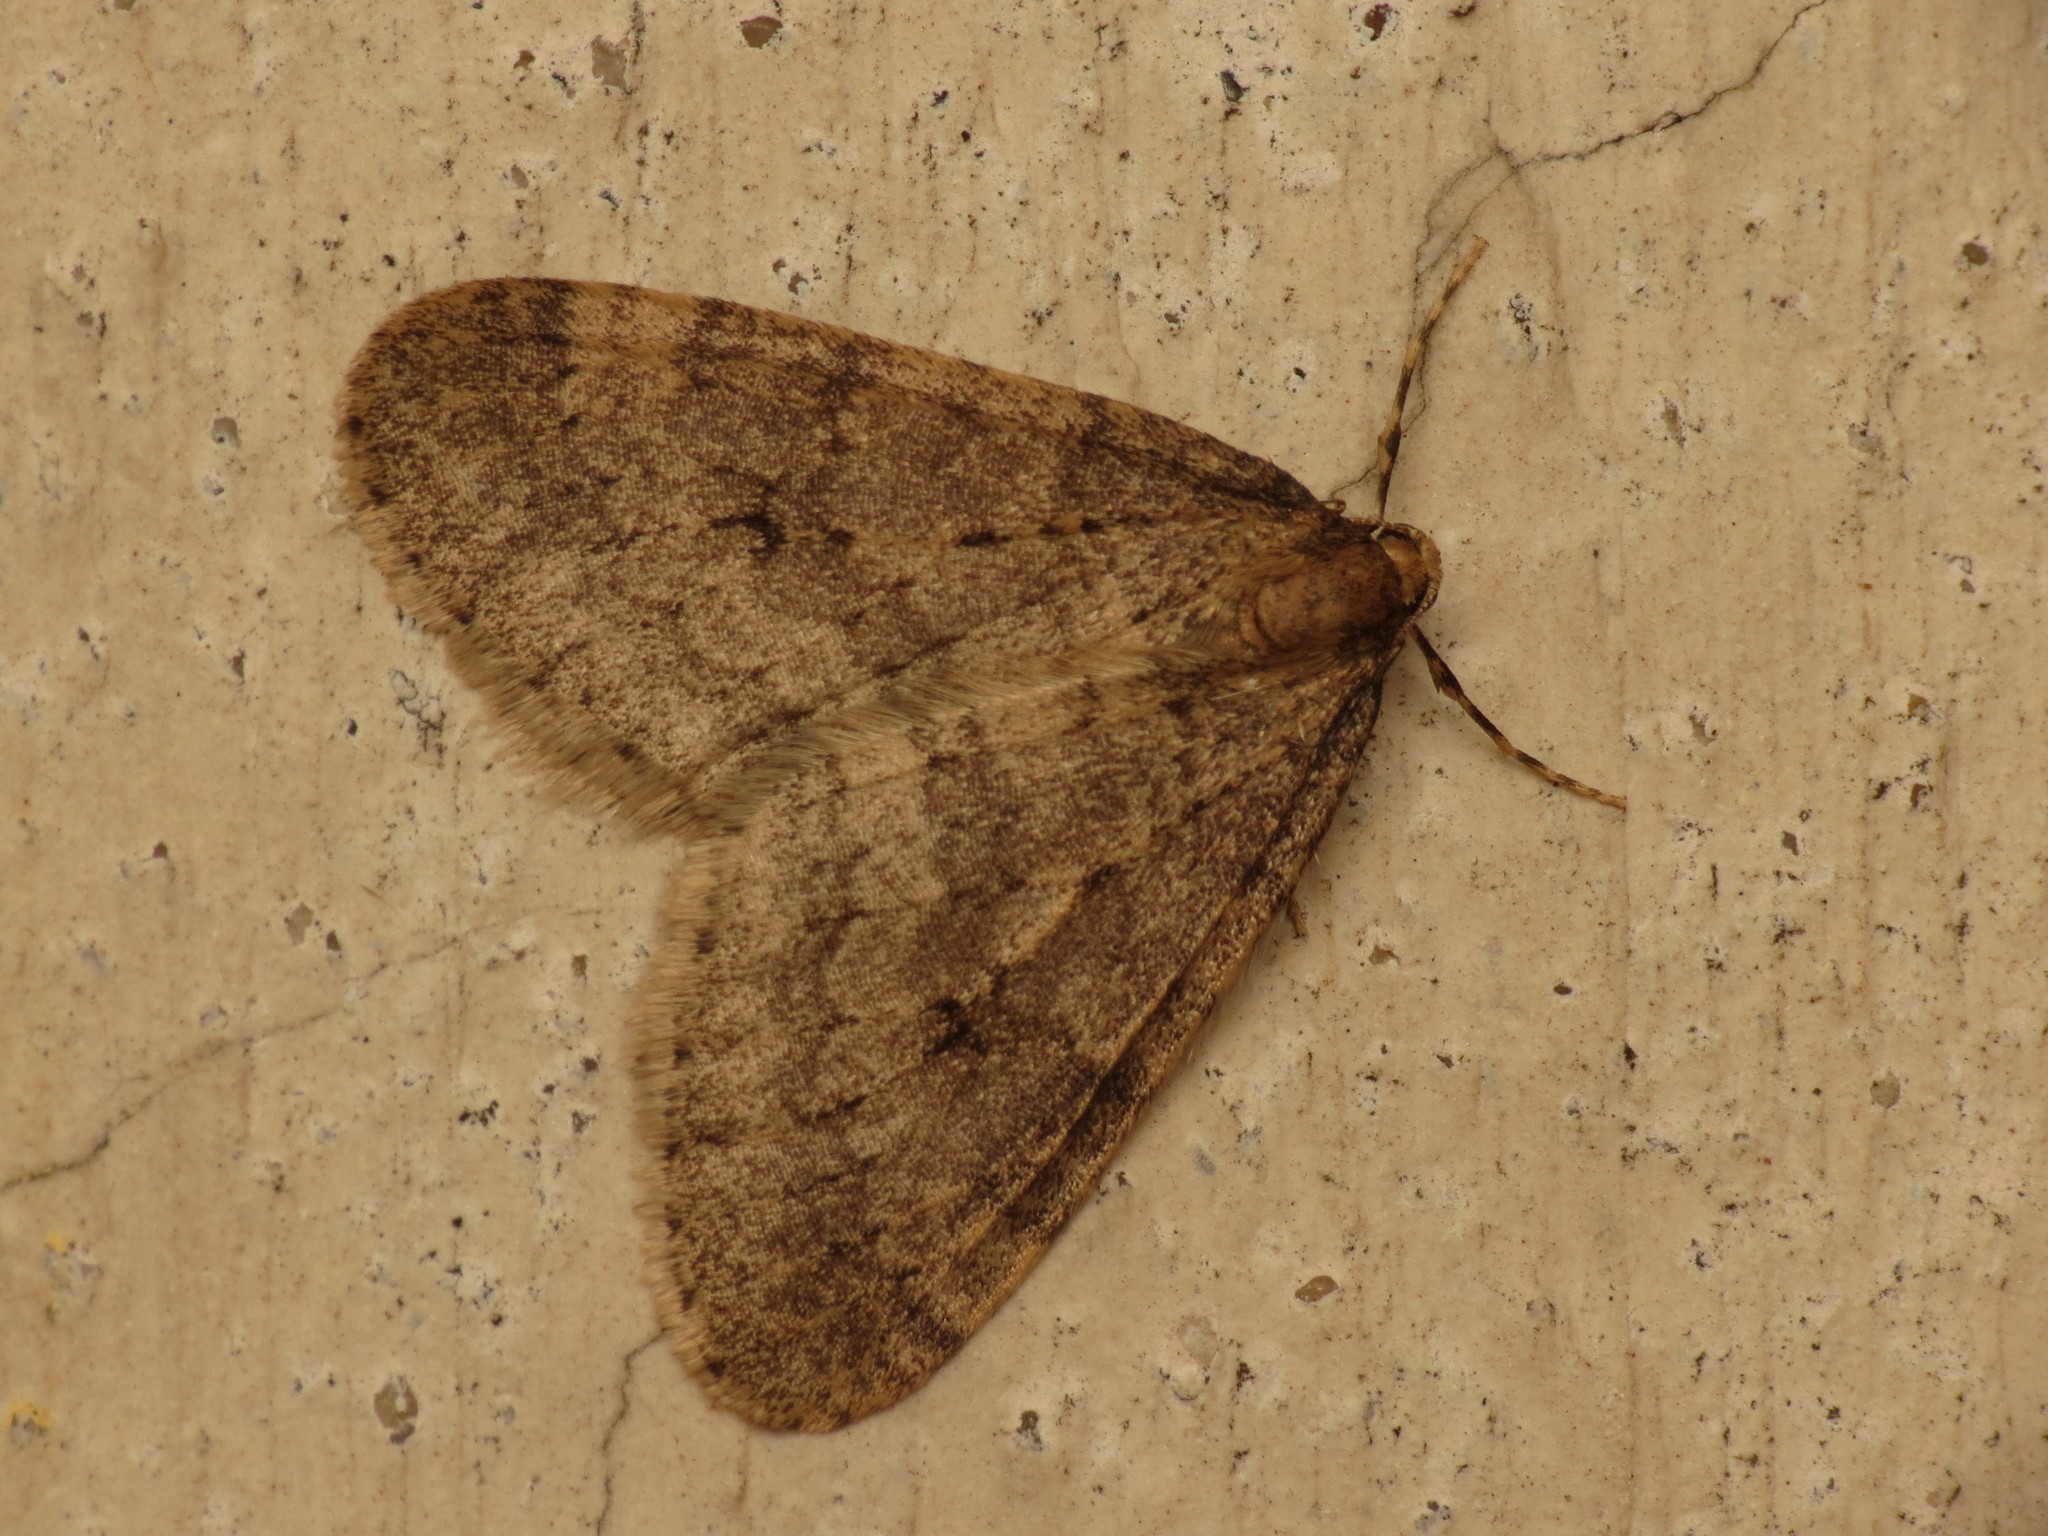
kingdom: Animalia
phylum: Arthropoda
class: Insecta
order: Lepidoptera
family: Geometridae
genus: Operophtera
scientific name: Operophtera brumata
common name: Winter moth
